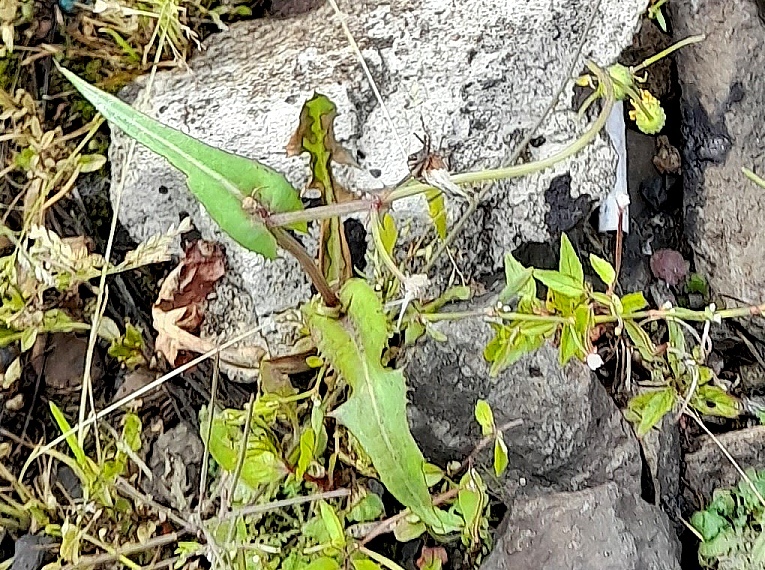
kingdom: Plantae
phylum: Tracheophyta
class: Magnoliopsida
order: Asterales
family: Asteraceae
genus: Sonchus
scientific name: Sonchus oleraceus
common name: Common sowthistle
